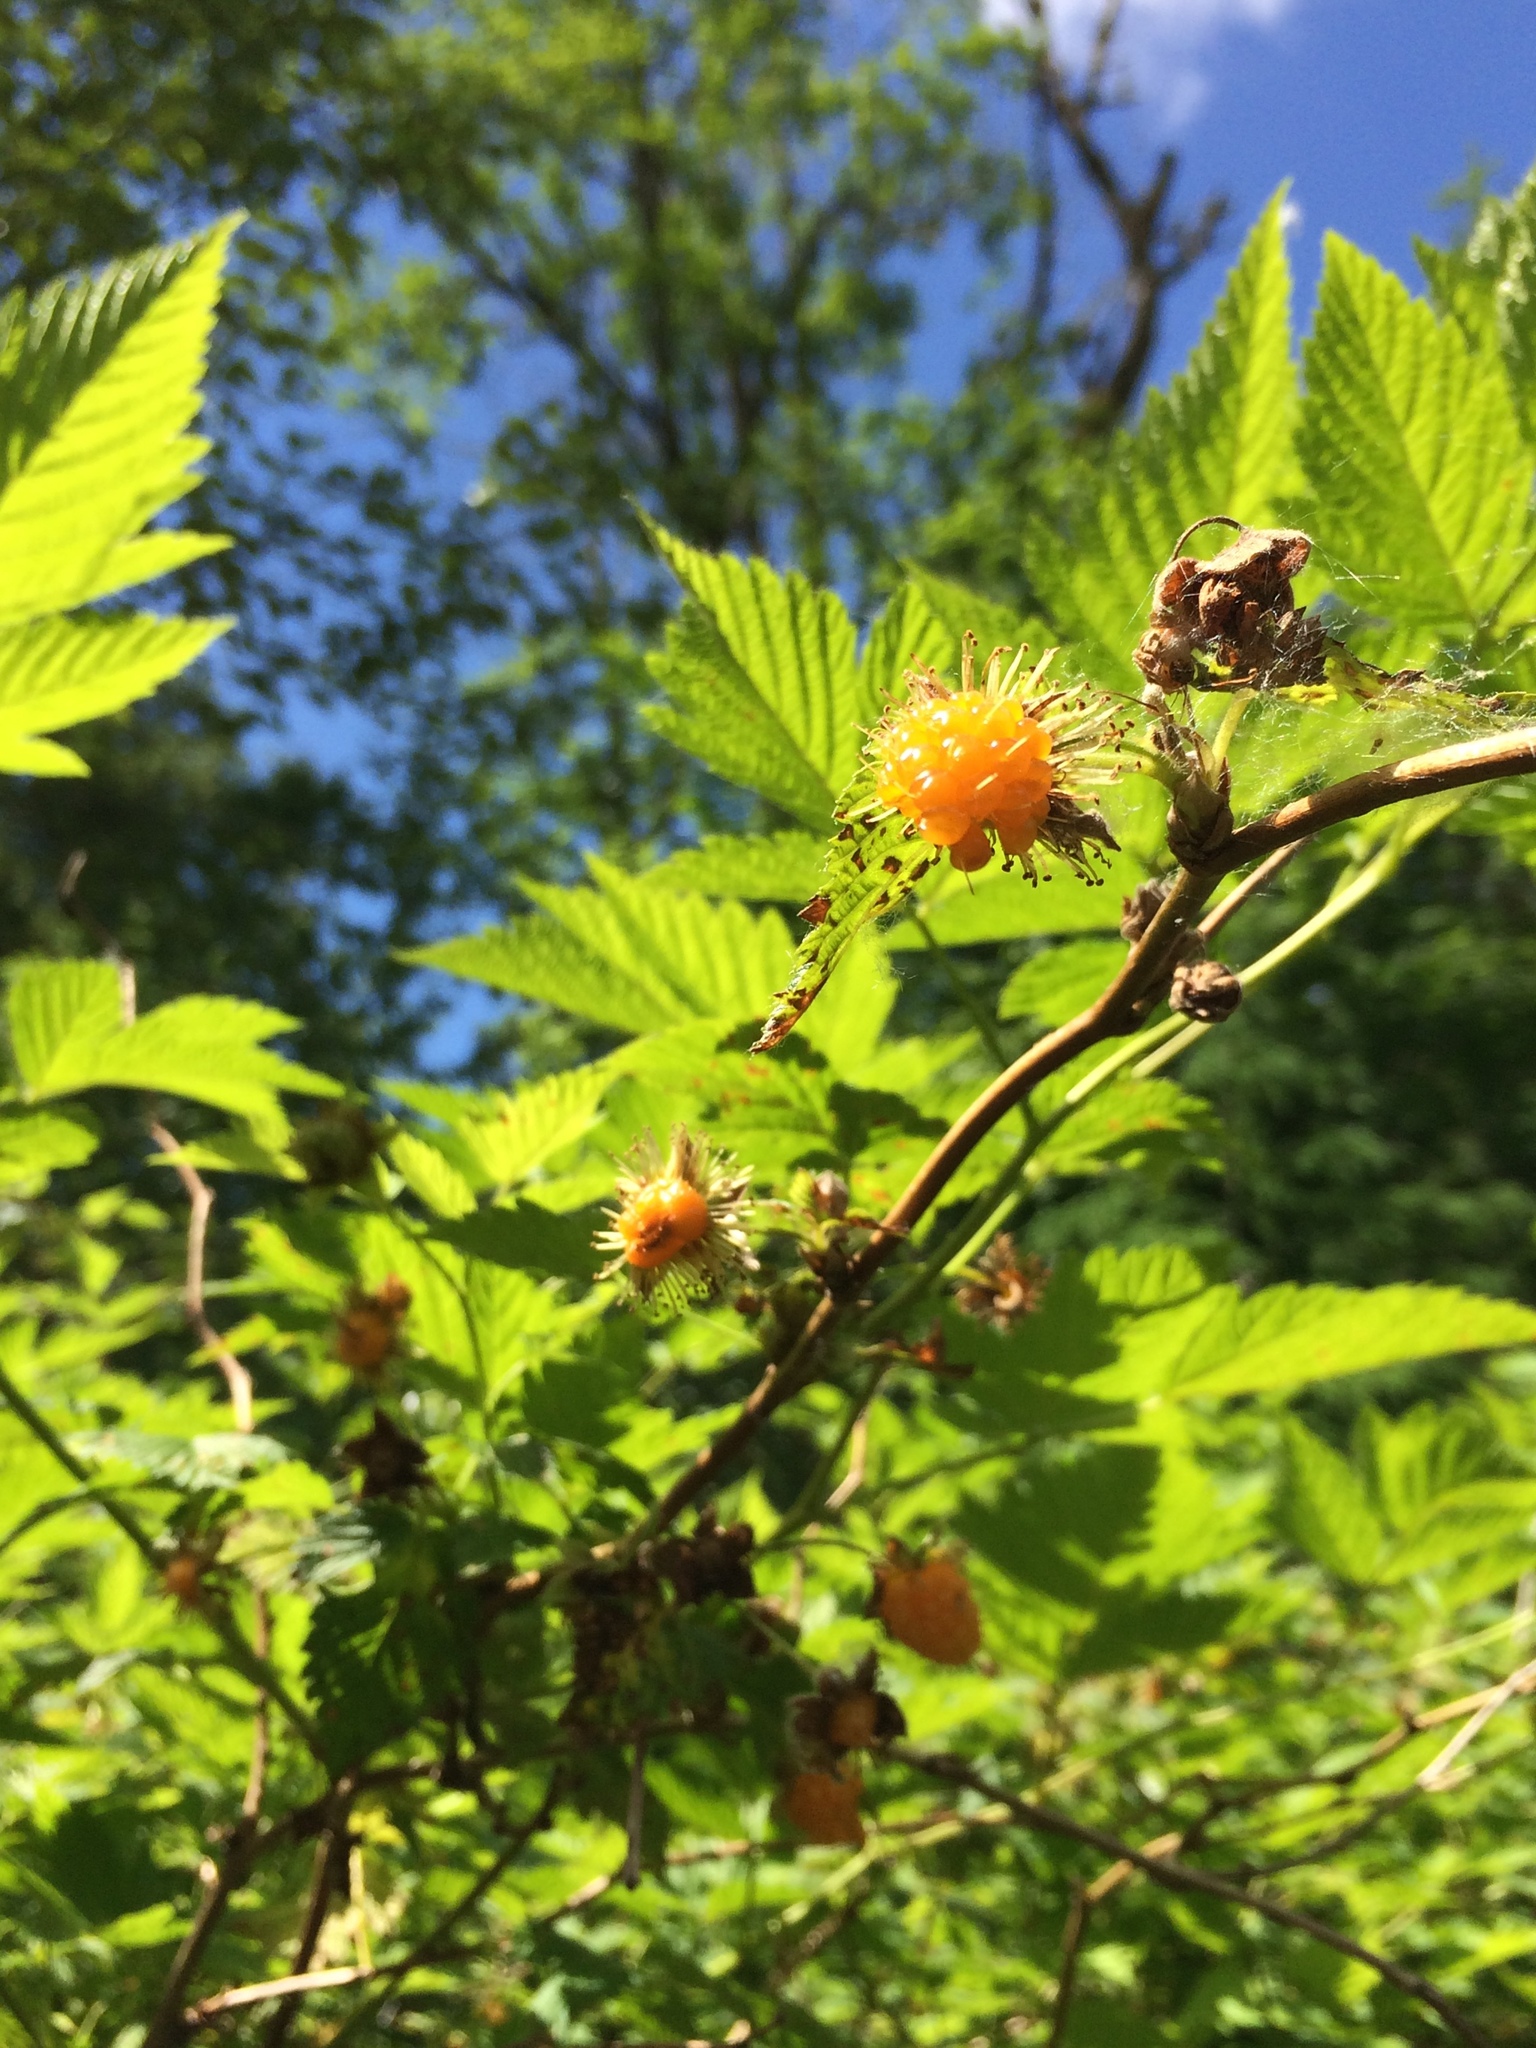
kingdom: Plantae
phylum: Tracheophyta
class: Magnoliopsida
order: Rosales
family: Rosaceae
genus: Rubus
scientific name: Rubus spectabilis
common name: Salmonberry
